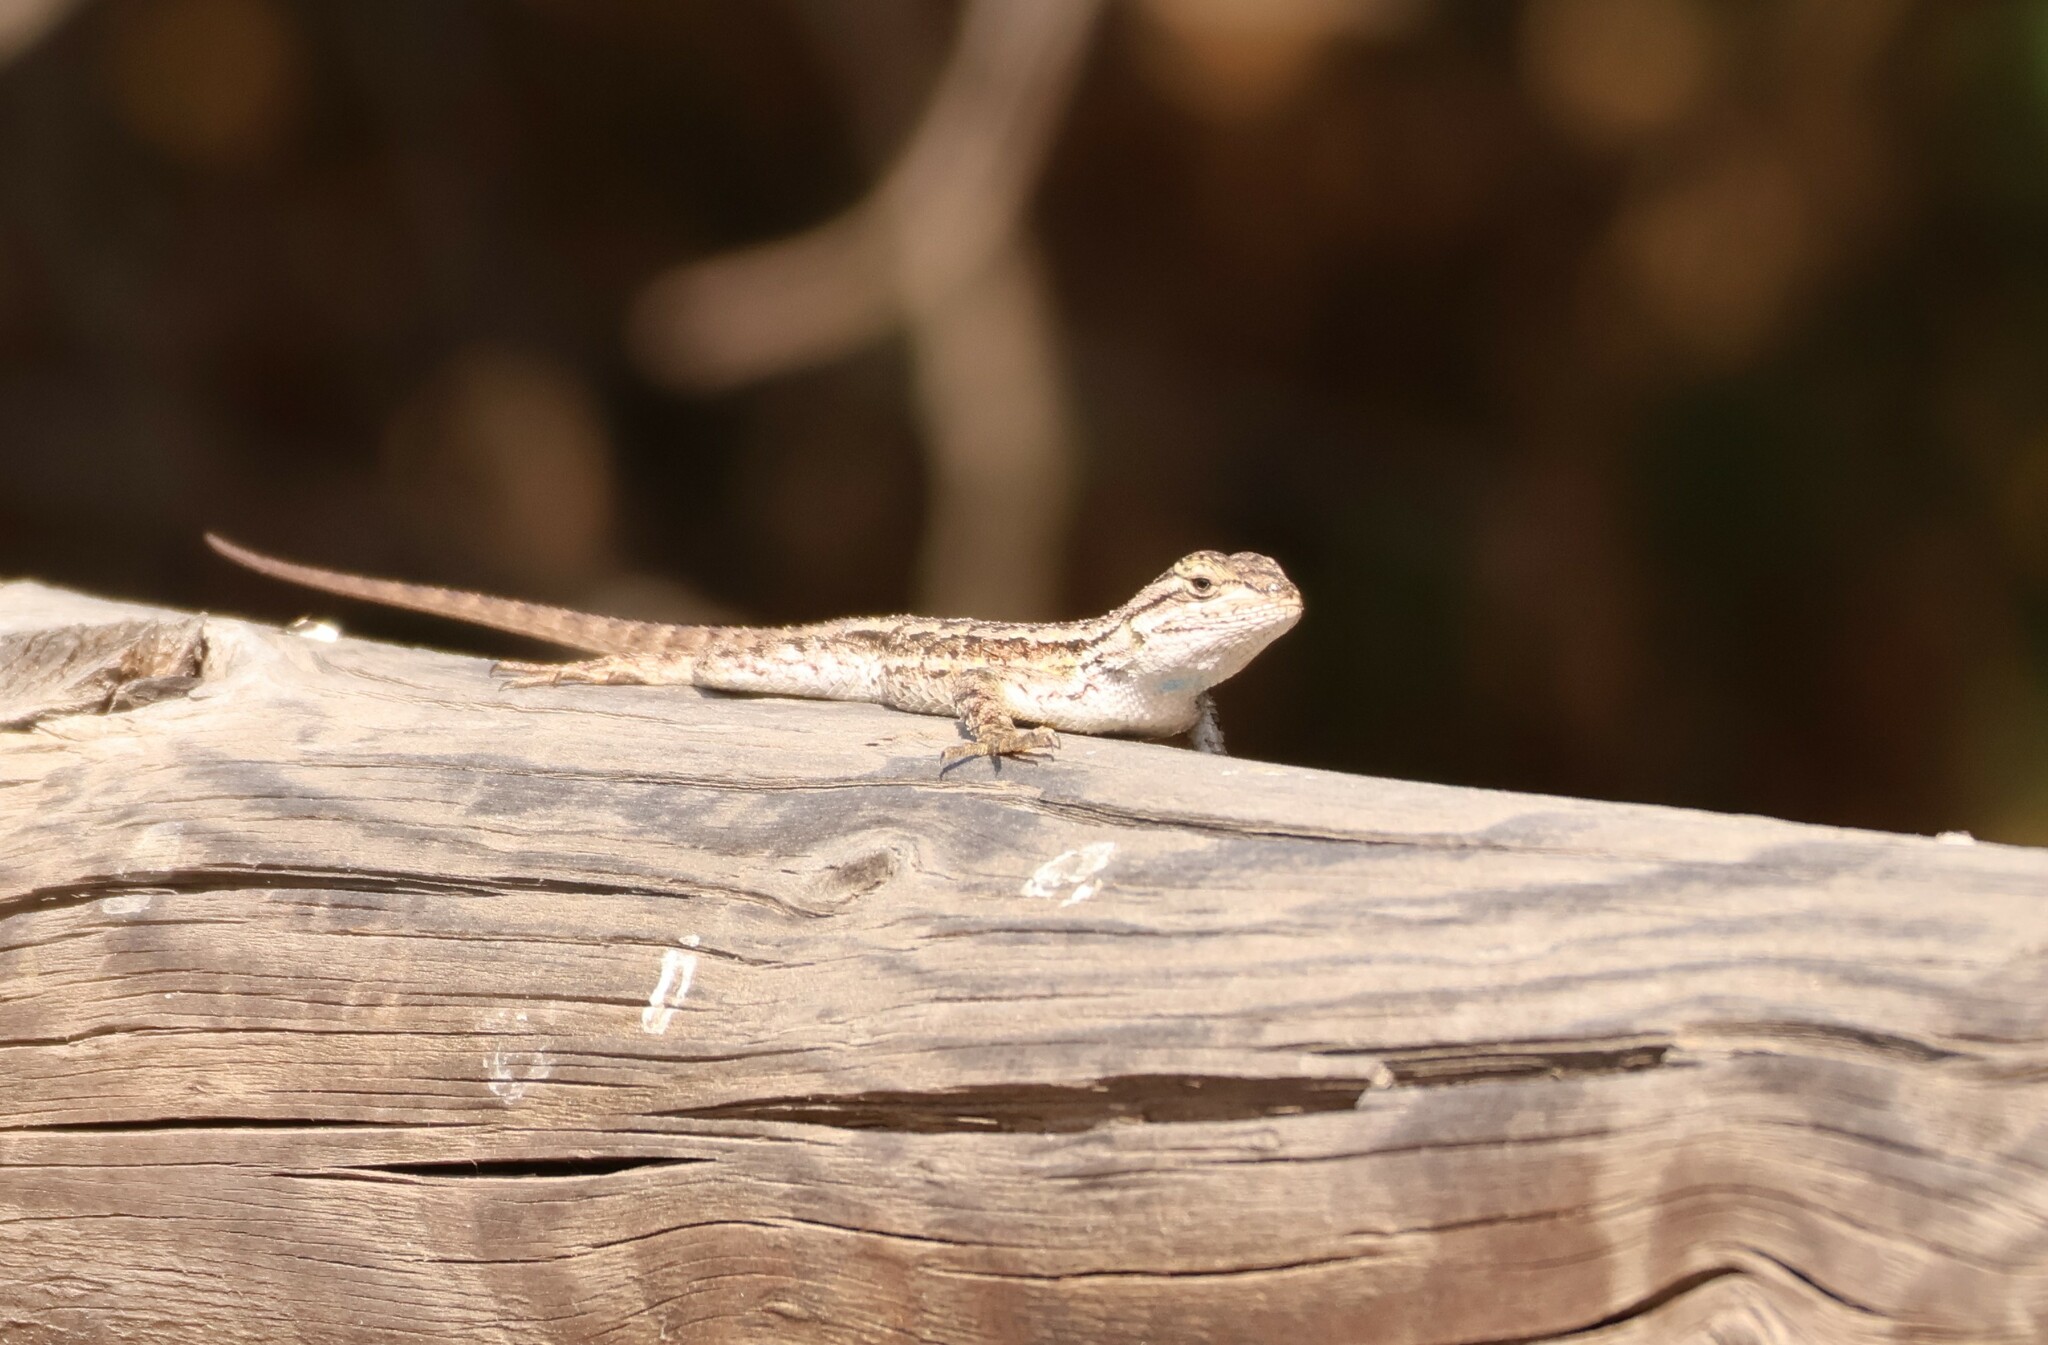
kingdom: Animalia
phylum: Chordata
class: Squamata
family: Phrynosomatidae
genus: Sceloporus
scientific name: Sceloporus occidentalis
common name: Western fence lizard
